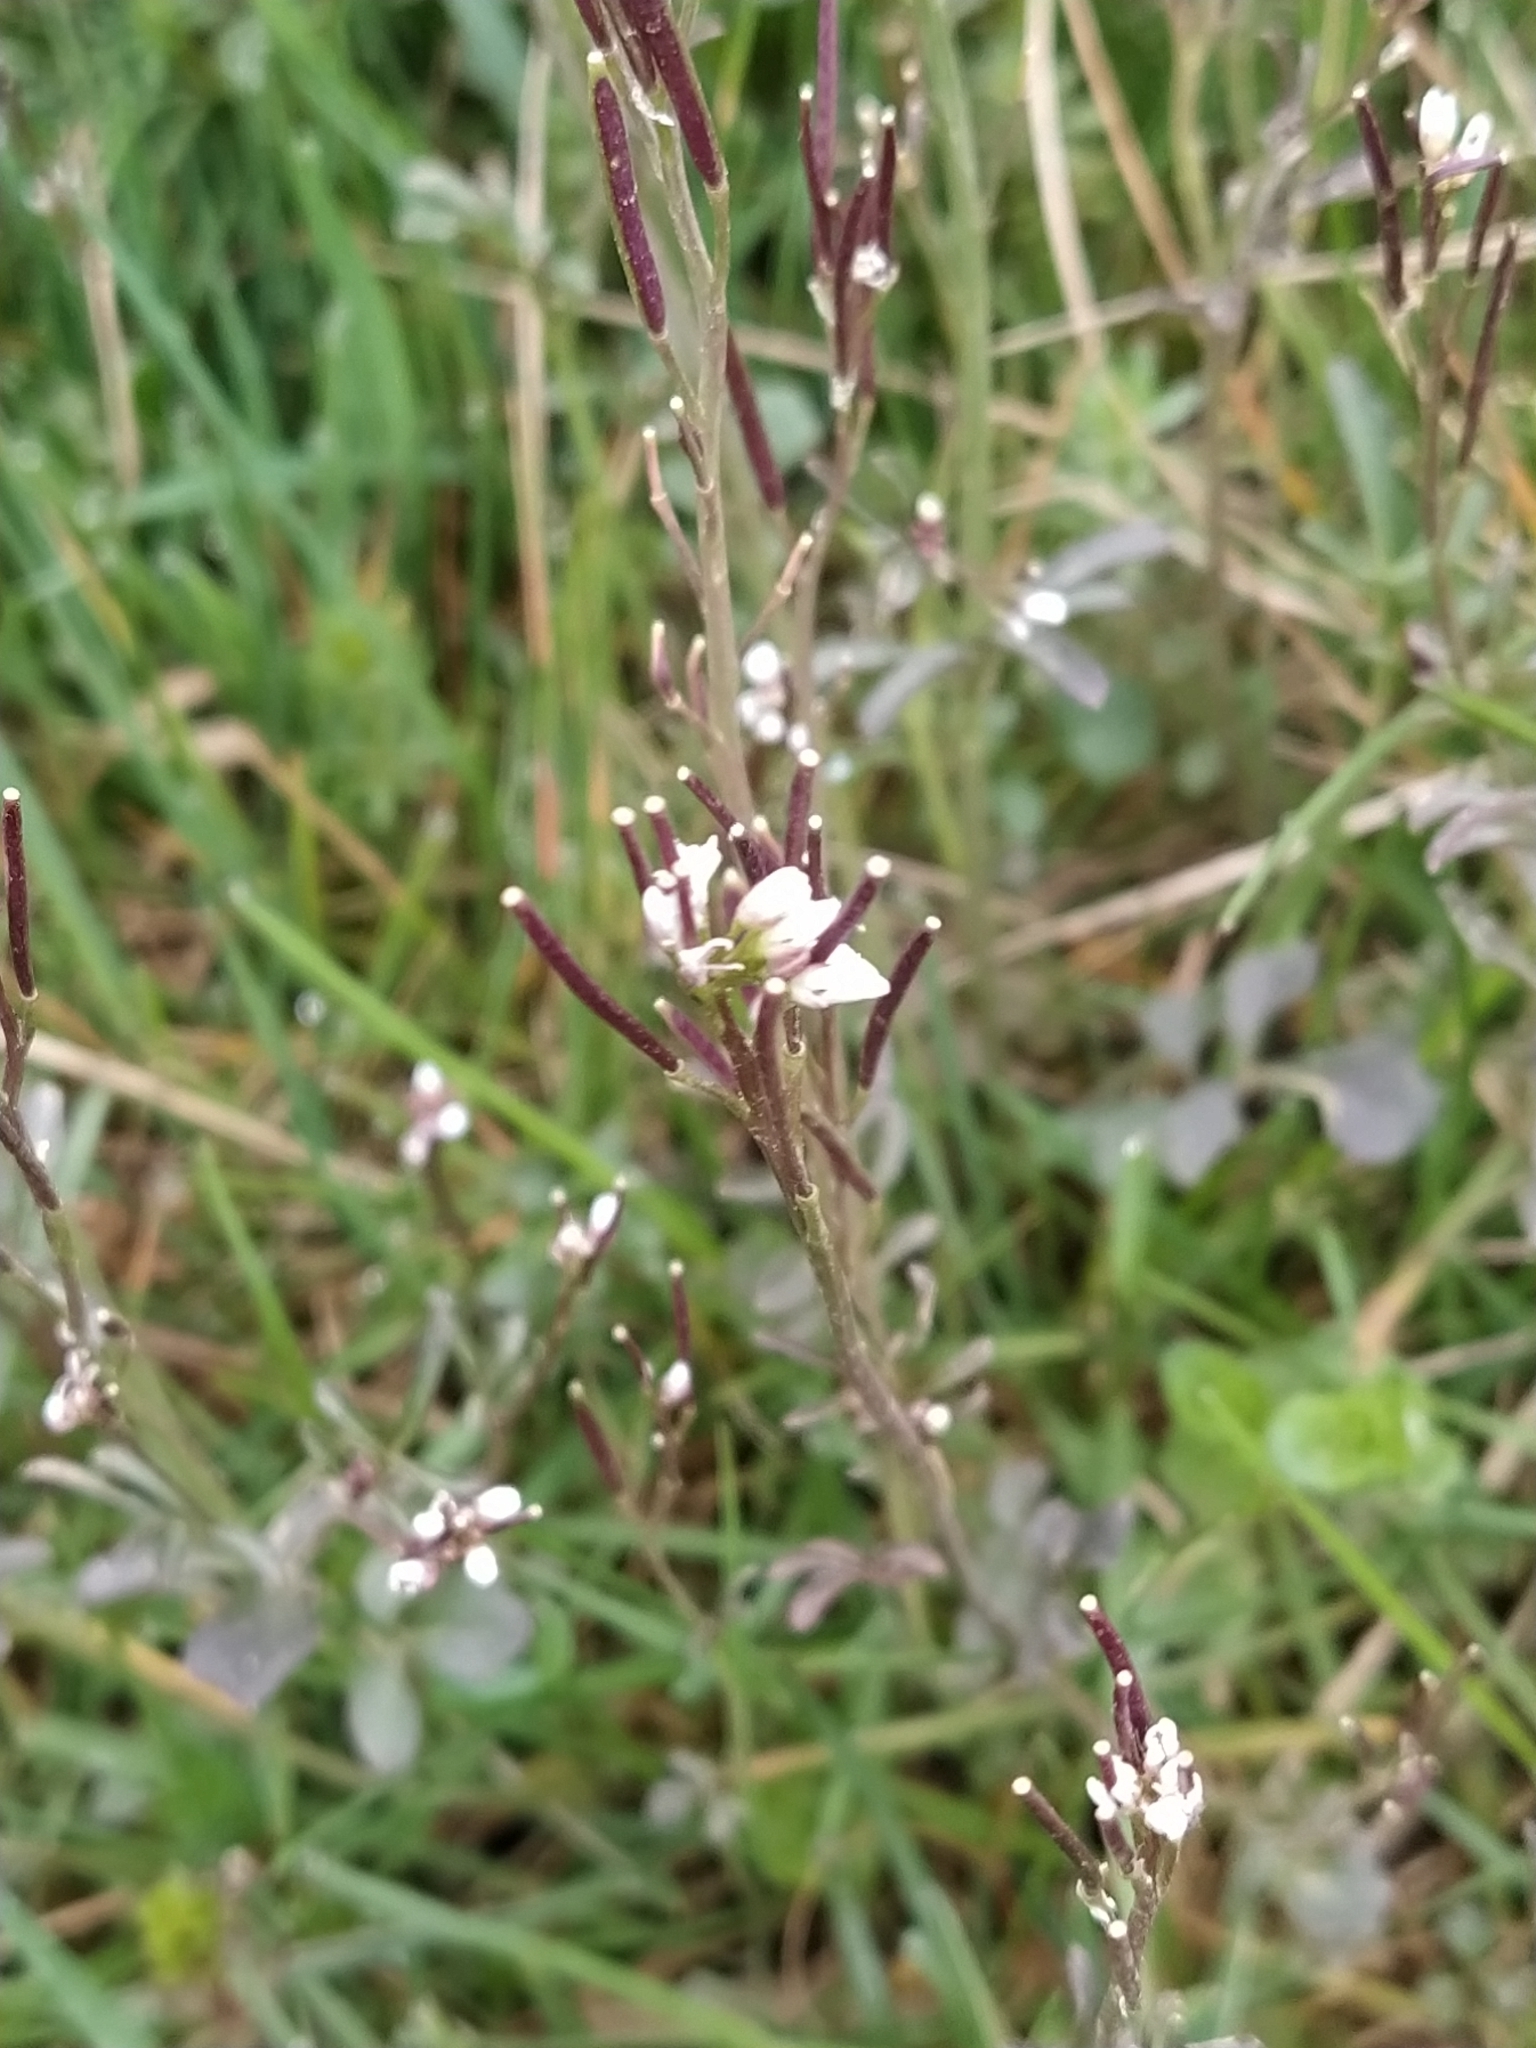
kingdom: Plantae
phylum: Tracheophyta
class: Magnoliopsida
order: Brassicales
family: Brassicaceae
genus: Cardamine
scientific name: Cardamine hirsuta
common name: Hairy bittercress
